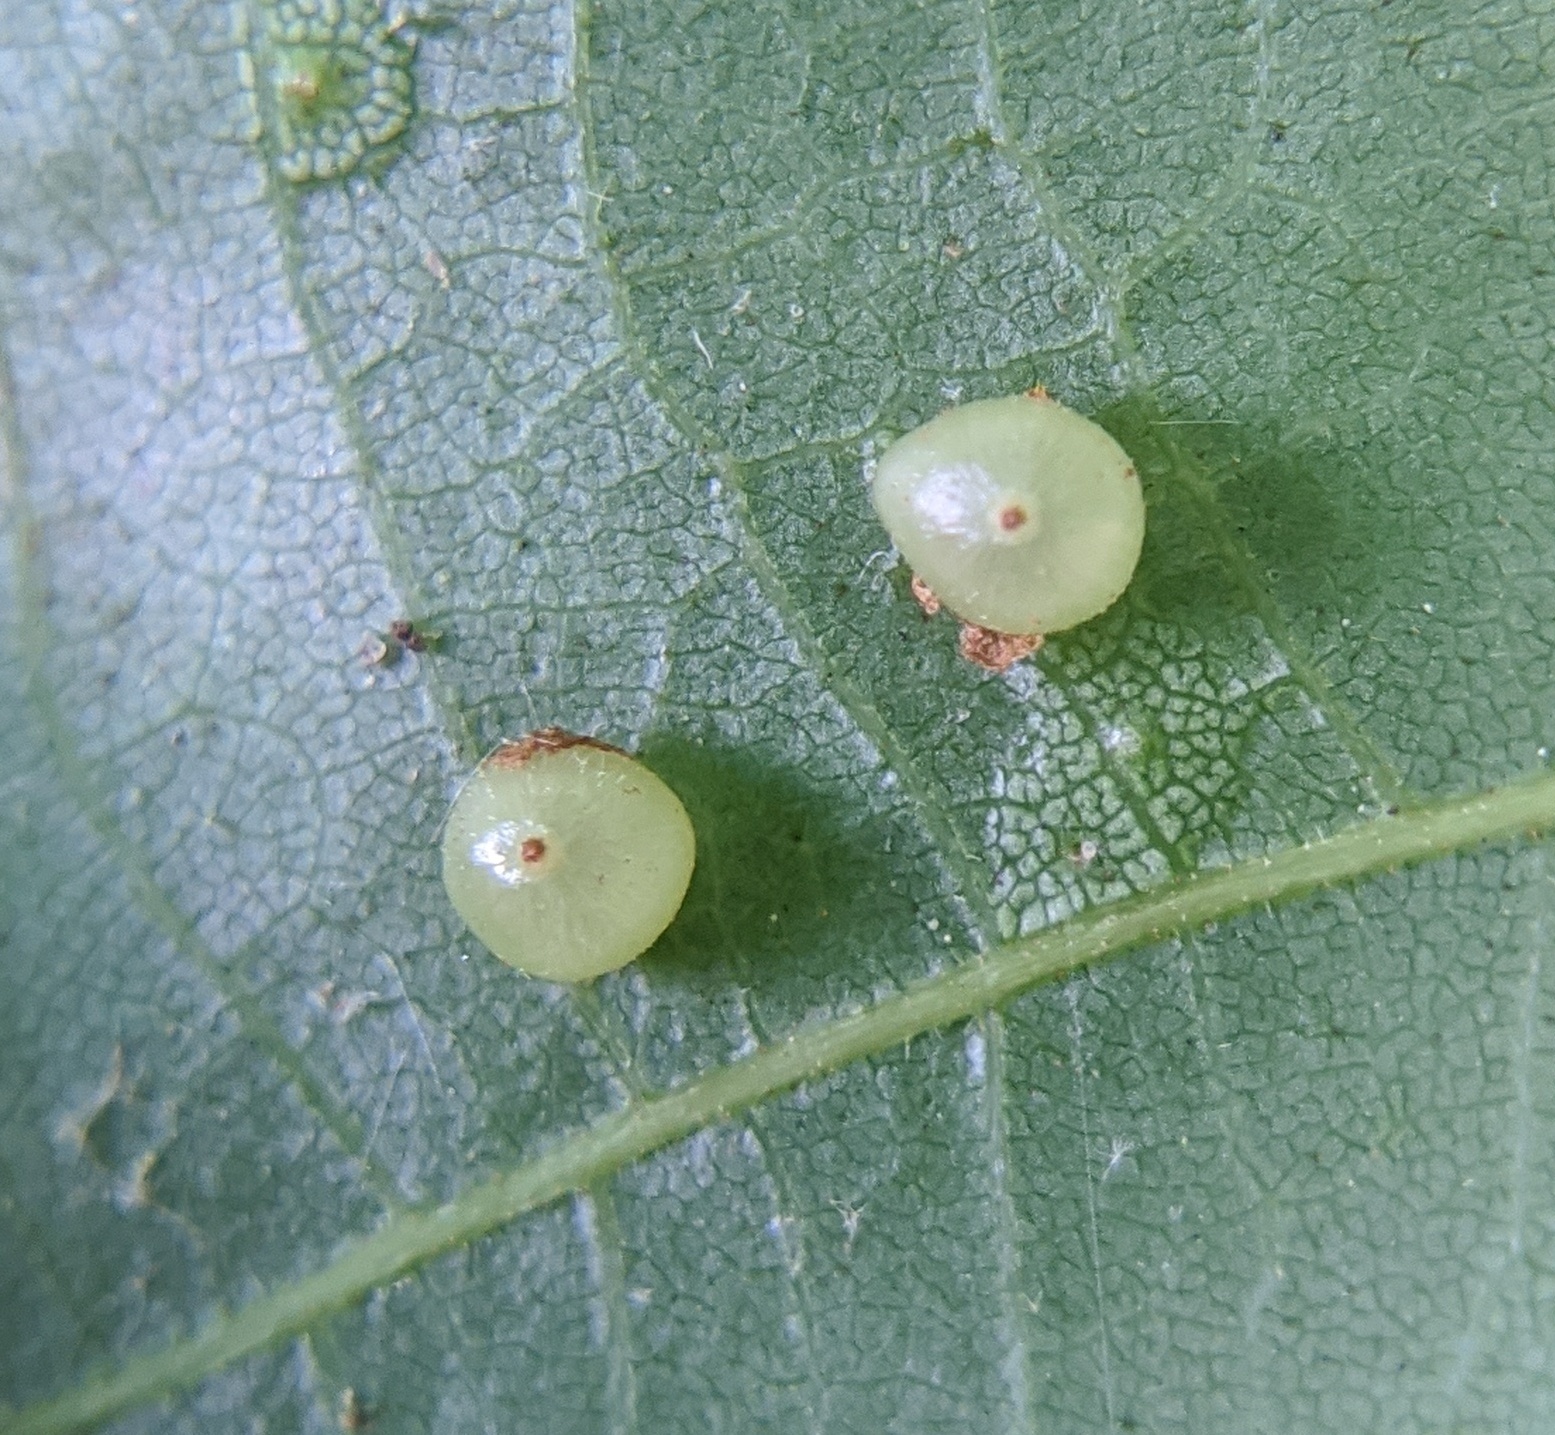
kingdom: Animalia
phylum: Arthropoda
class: Insecta
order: Diptera
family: Cecidomyiidae
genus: Caryomyia
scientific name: Caryomyia caryae
